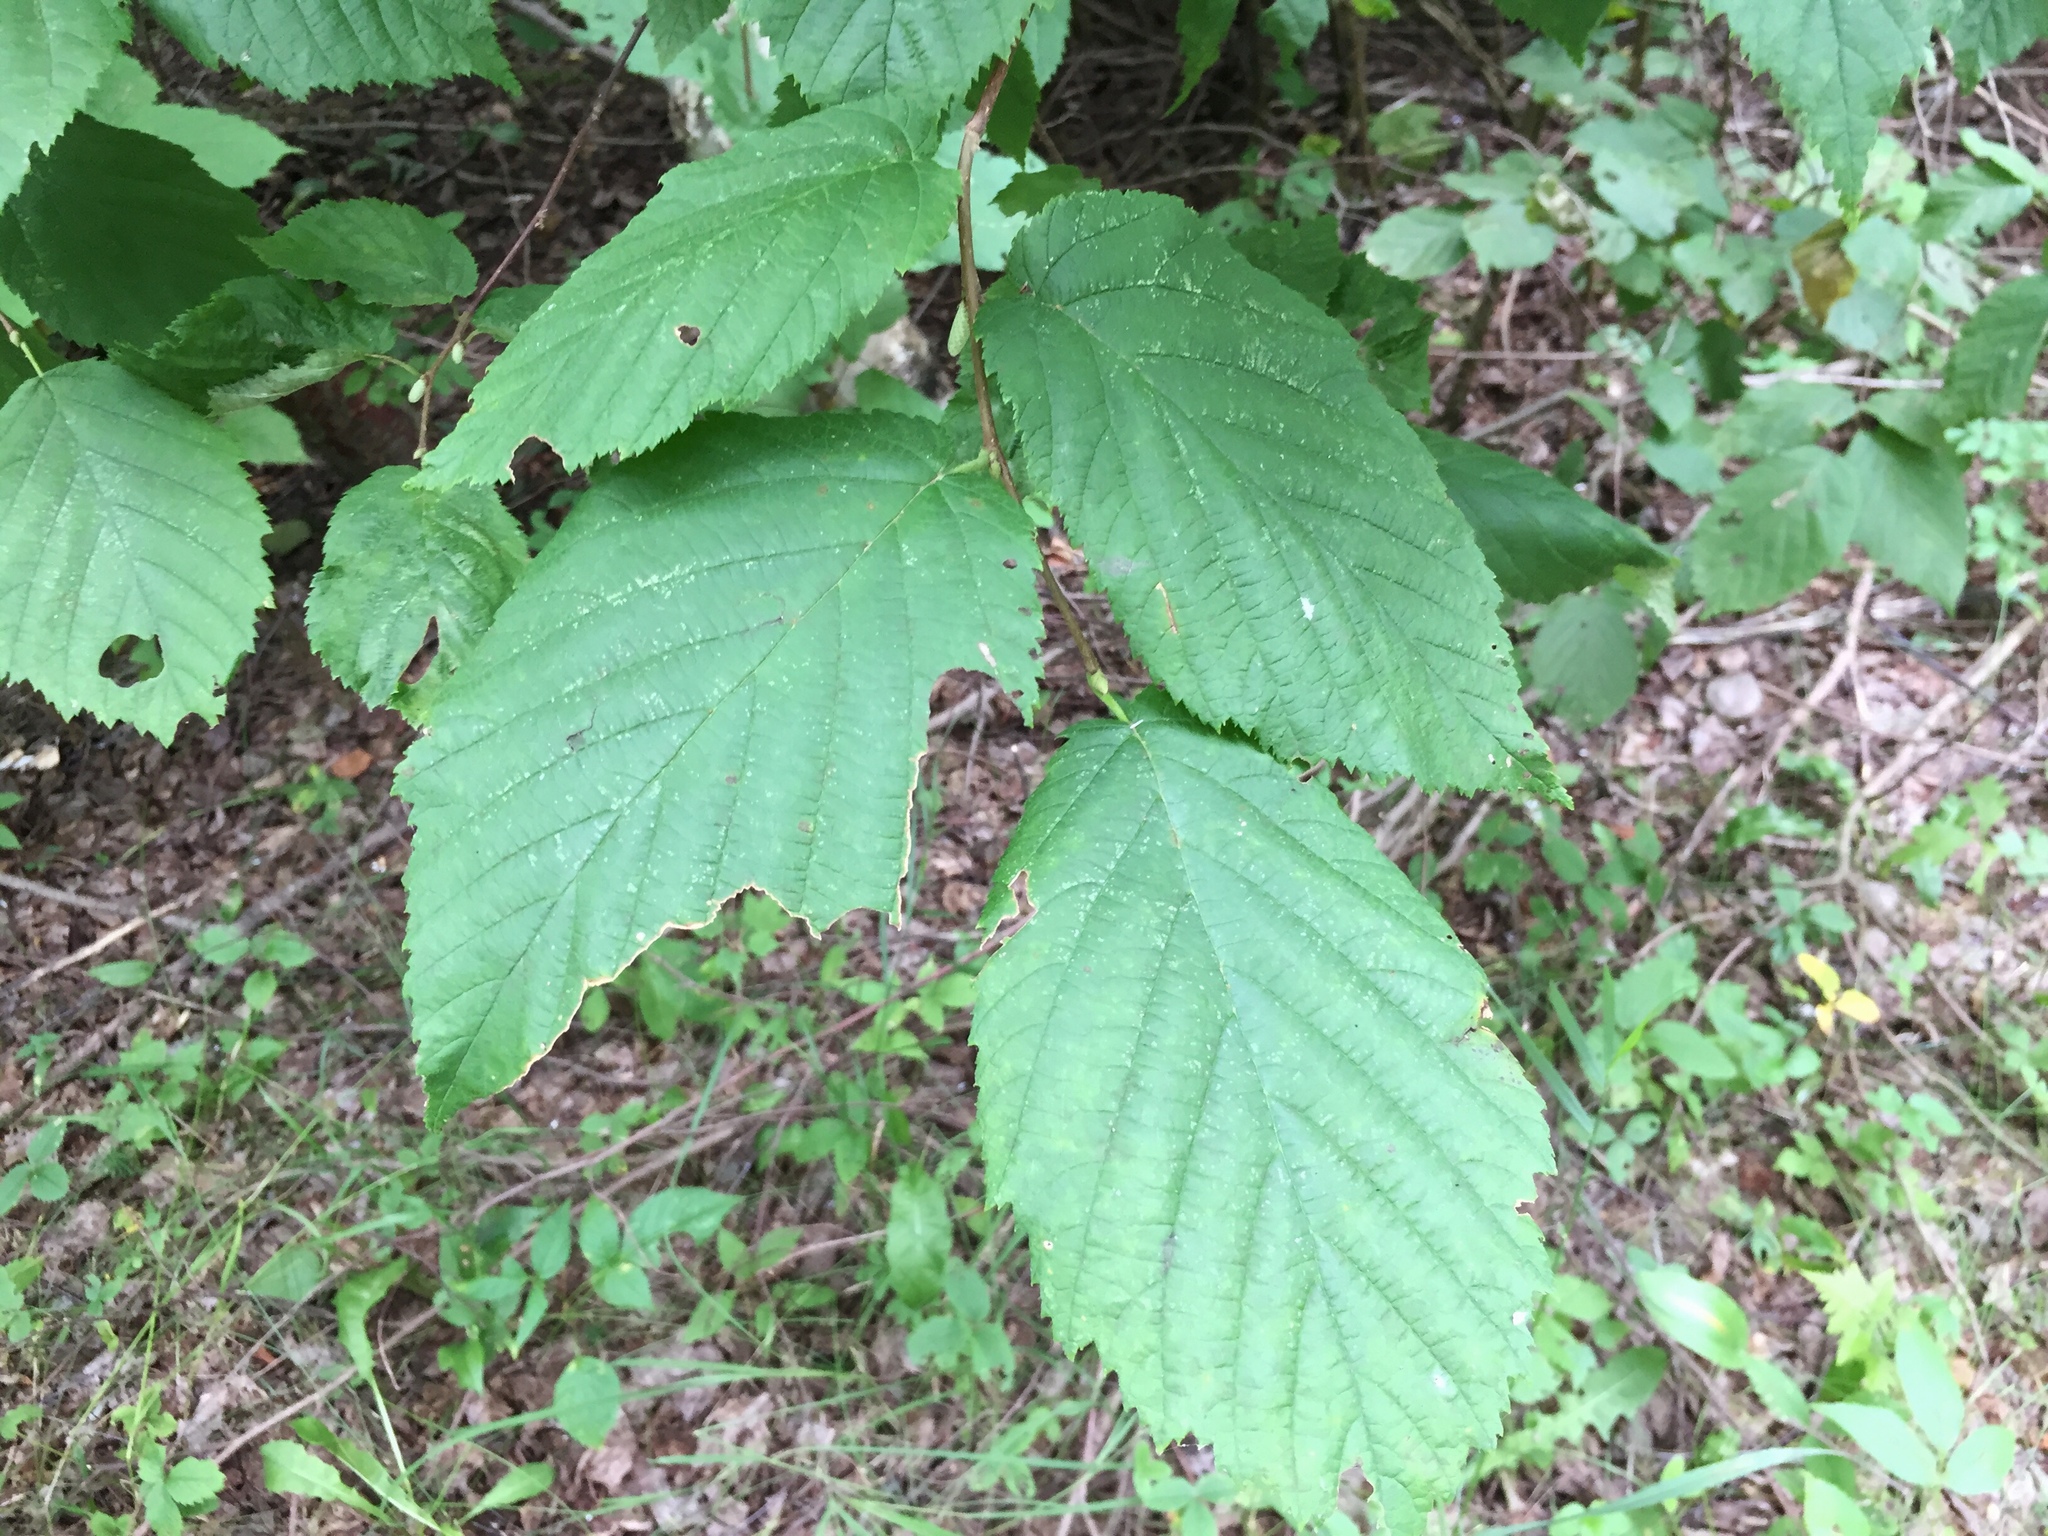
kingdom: Plantae
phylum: Tracheophyta
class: Magnoliopsida
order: Fagales
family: Betulaceae
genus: Corylus
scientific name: Corylus cornuta
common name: Beaked hazel
